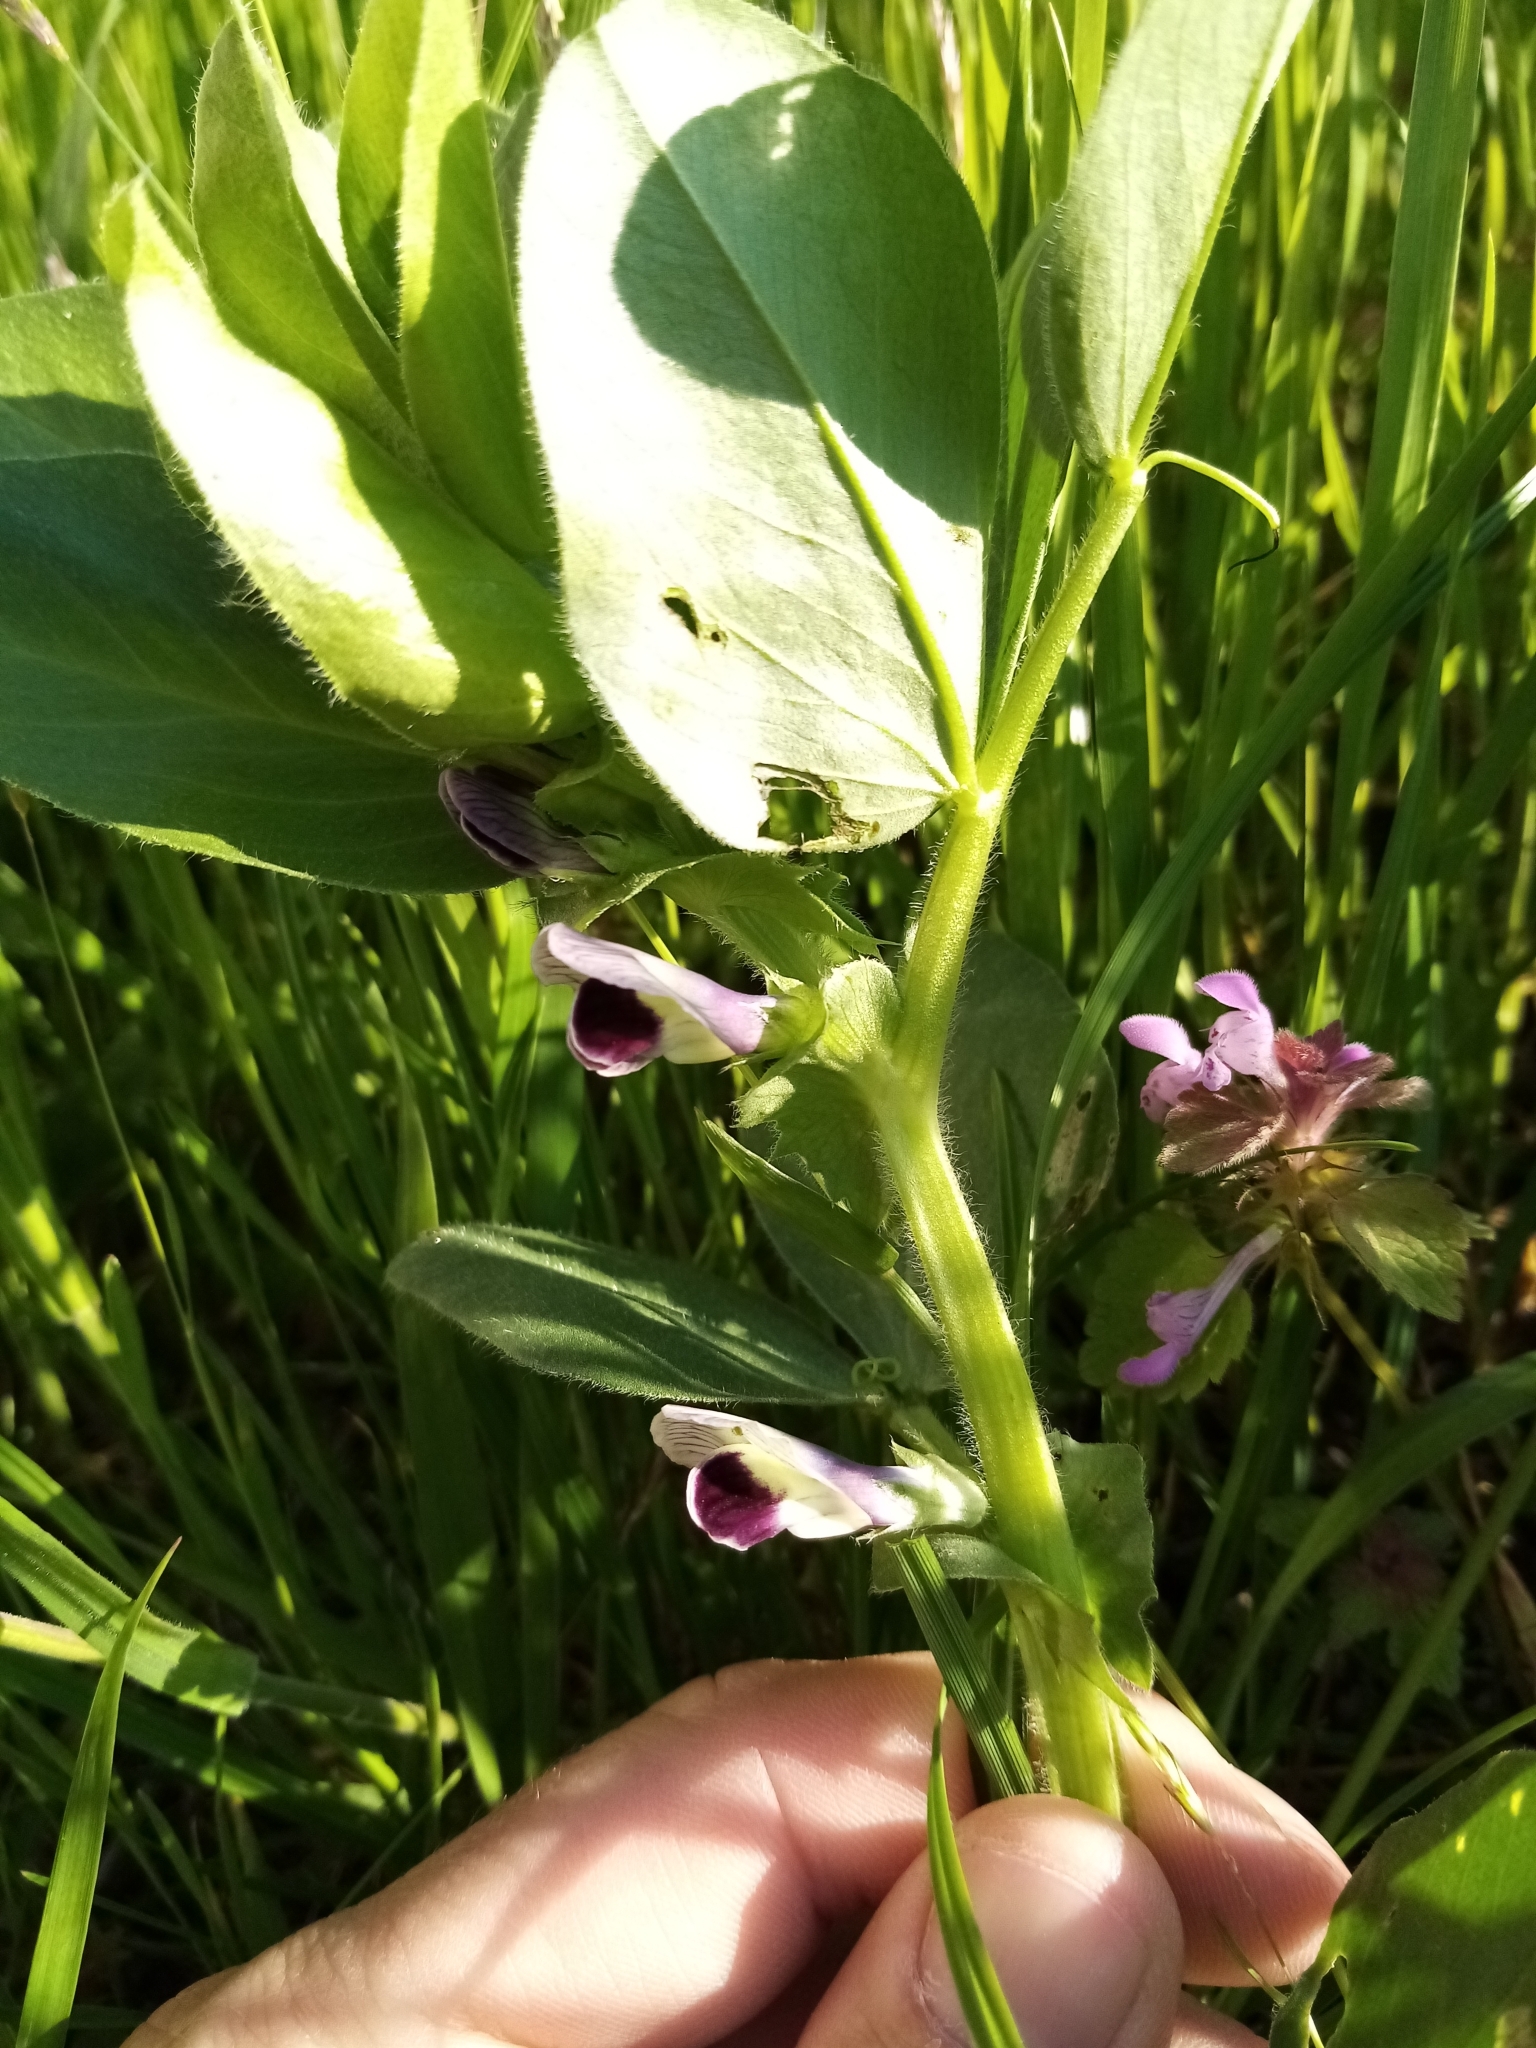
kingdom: Plantae
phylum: Tracheophyta
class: Magnoliopsida
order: Fabales
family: Fabaceae
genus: Vicia
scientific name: Vicia narbonensis
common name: Narbonne vetch
